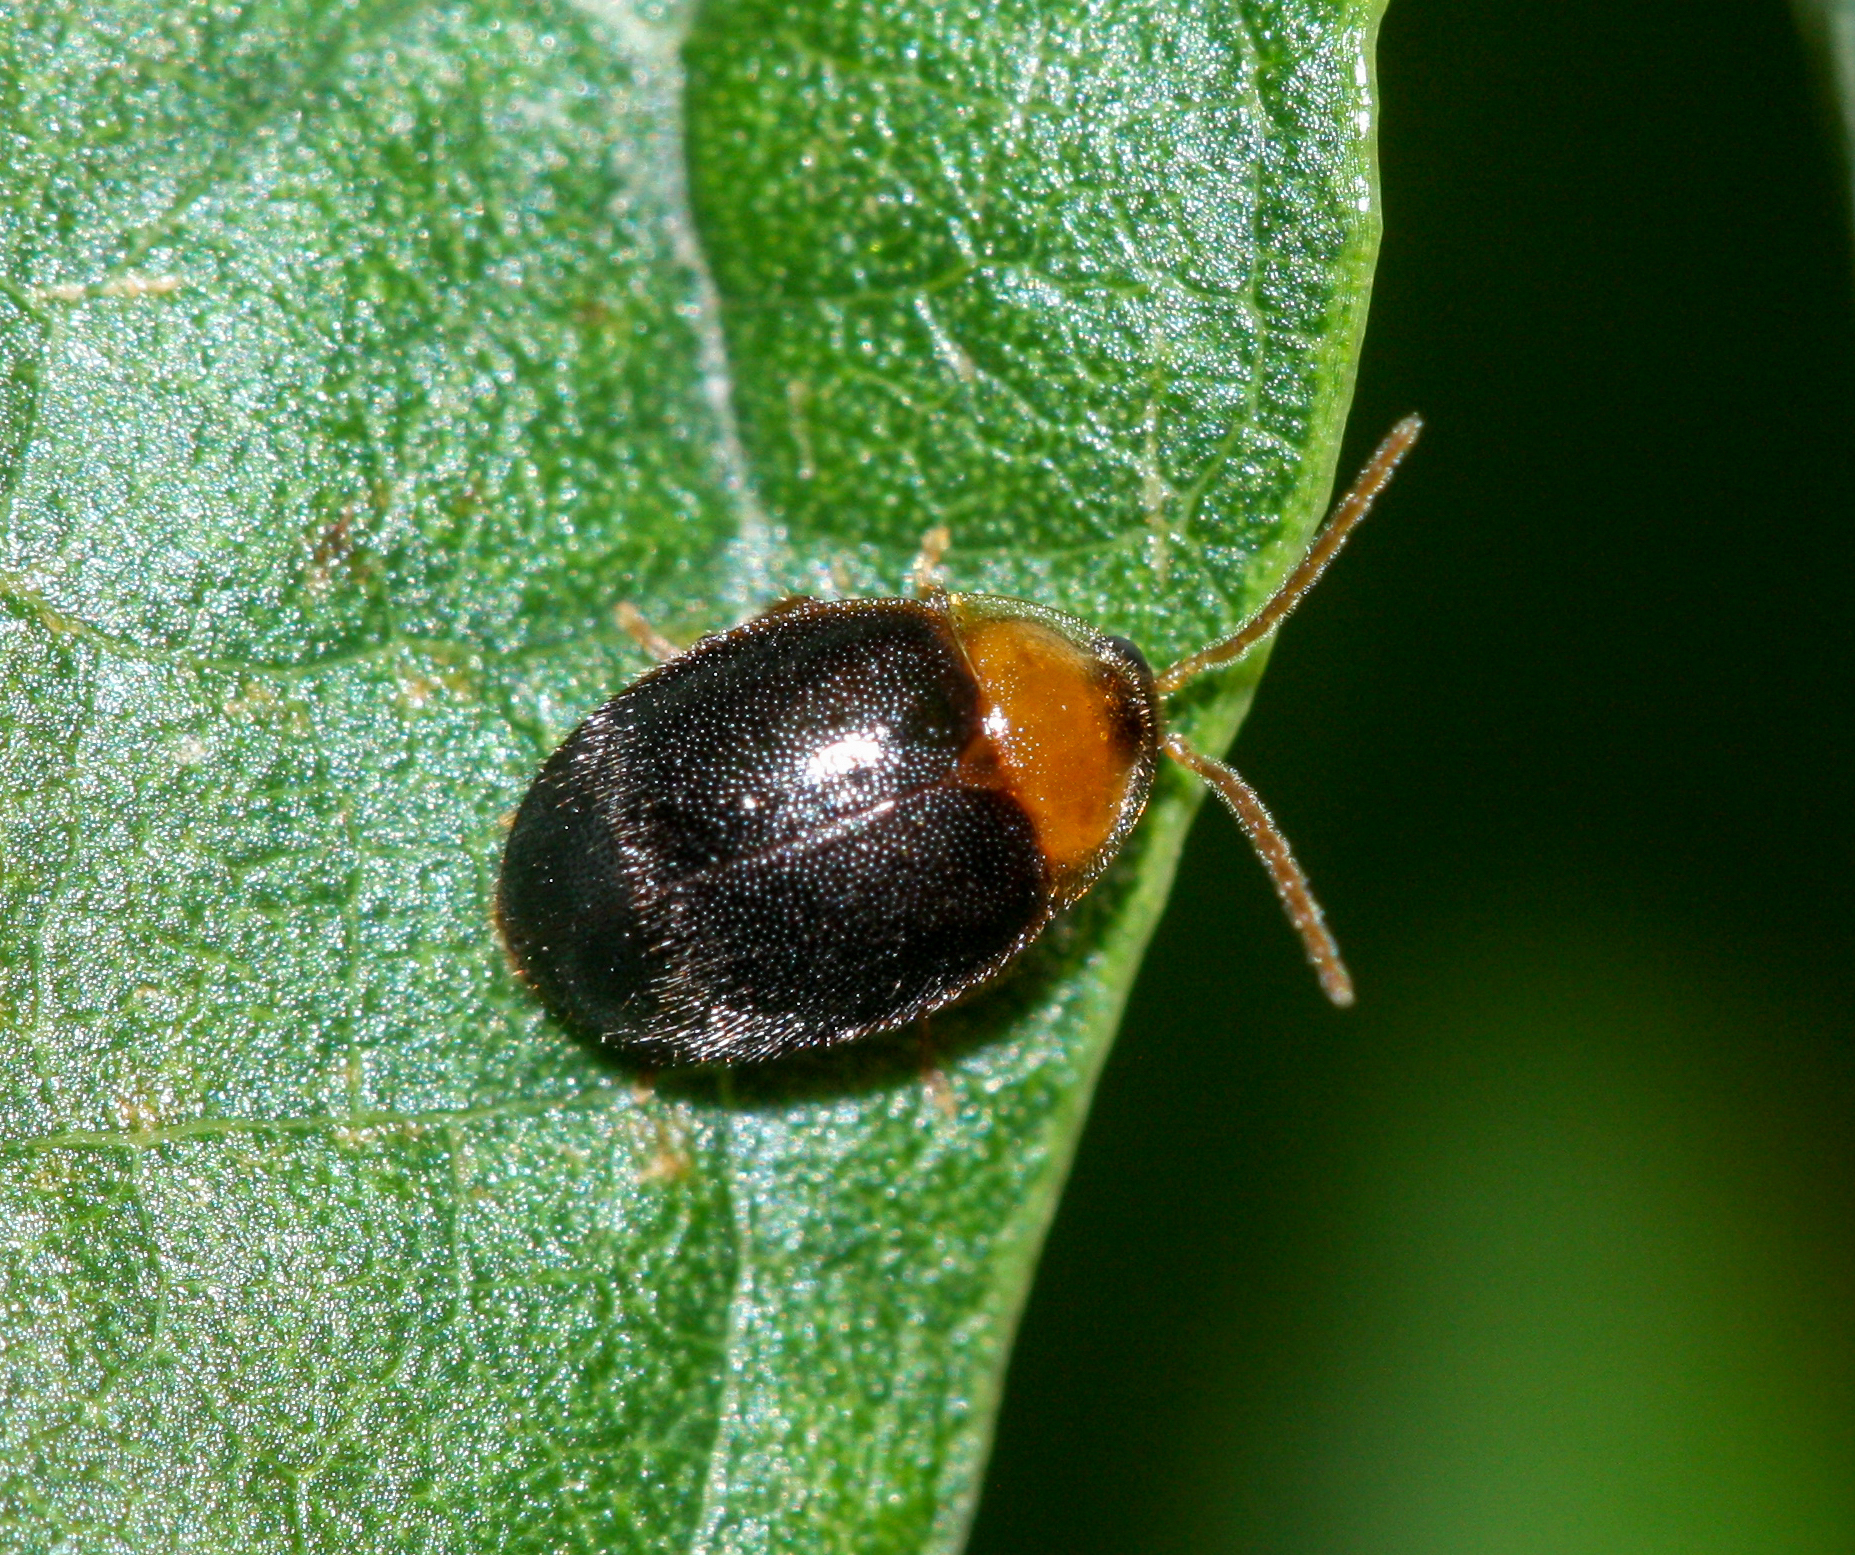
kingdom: Animalia
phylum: Arthropoda
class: Insecta
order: Coleoptera
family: Scirtidae
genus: Sacodes
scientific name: Sacodes thoracica
